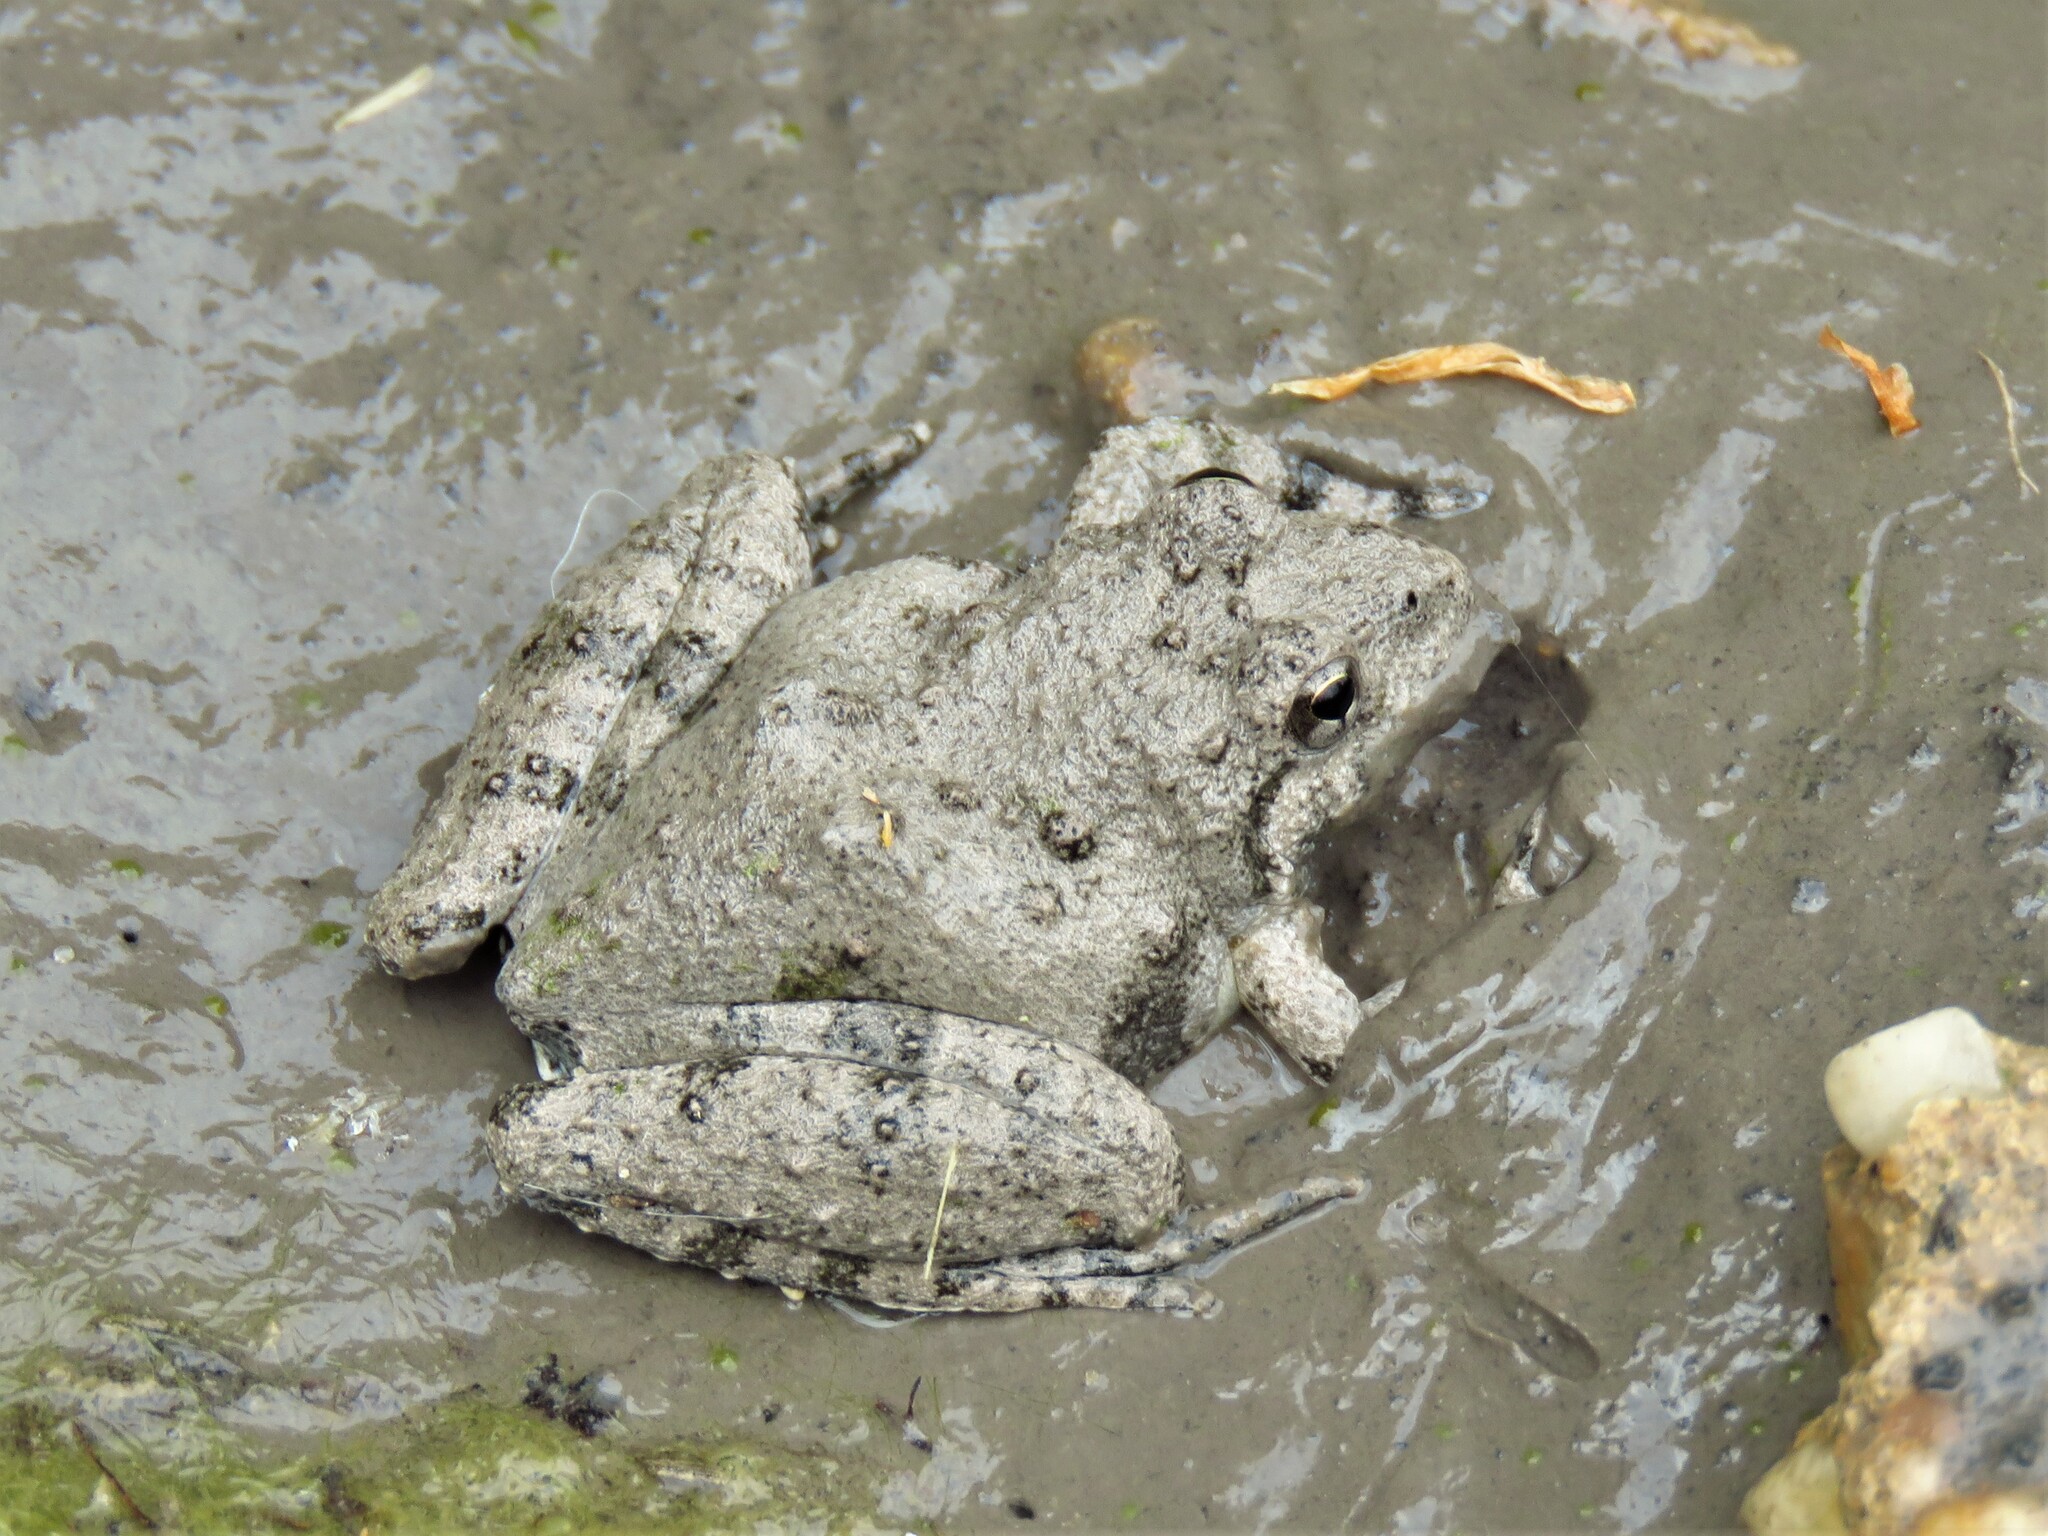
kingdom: Animalia
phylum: Chordata
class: Amphibia
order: Anura
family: Hylidae
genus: Acris
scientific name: Acris blanchardi
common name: Blanchard's cricket frog
